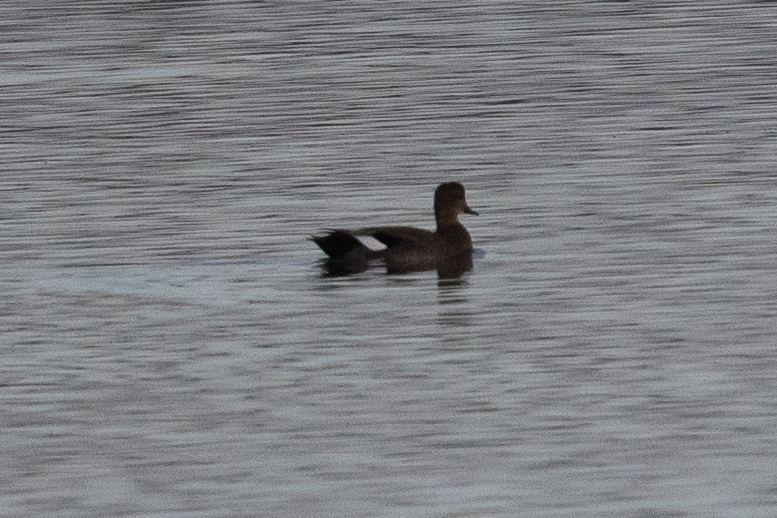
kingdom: Animalia
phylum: Chordata
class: Aves
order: Anseriformes
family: Anatidae
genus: Mareca
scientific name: Mareca strepera
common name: Gadwall
